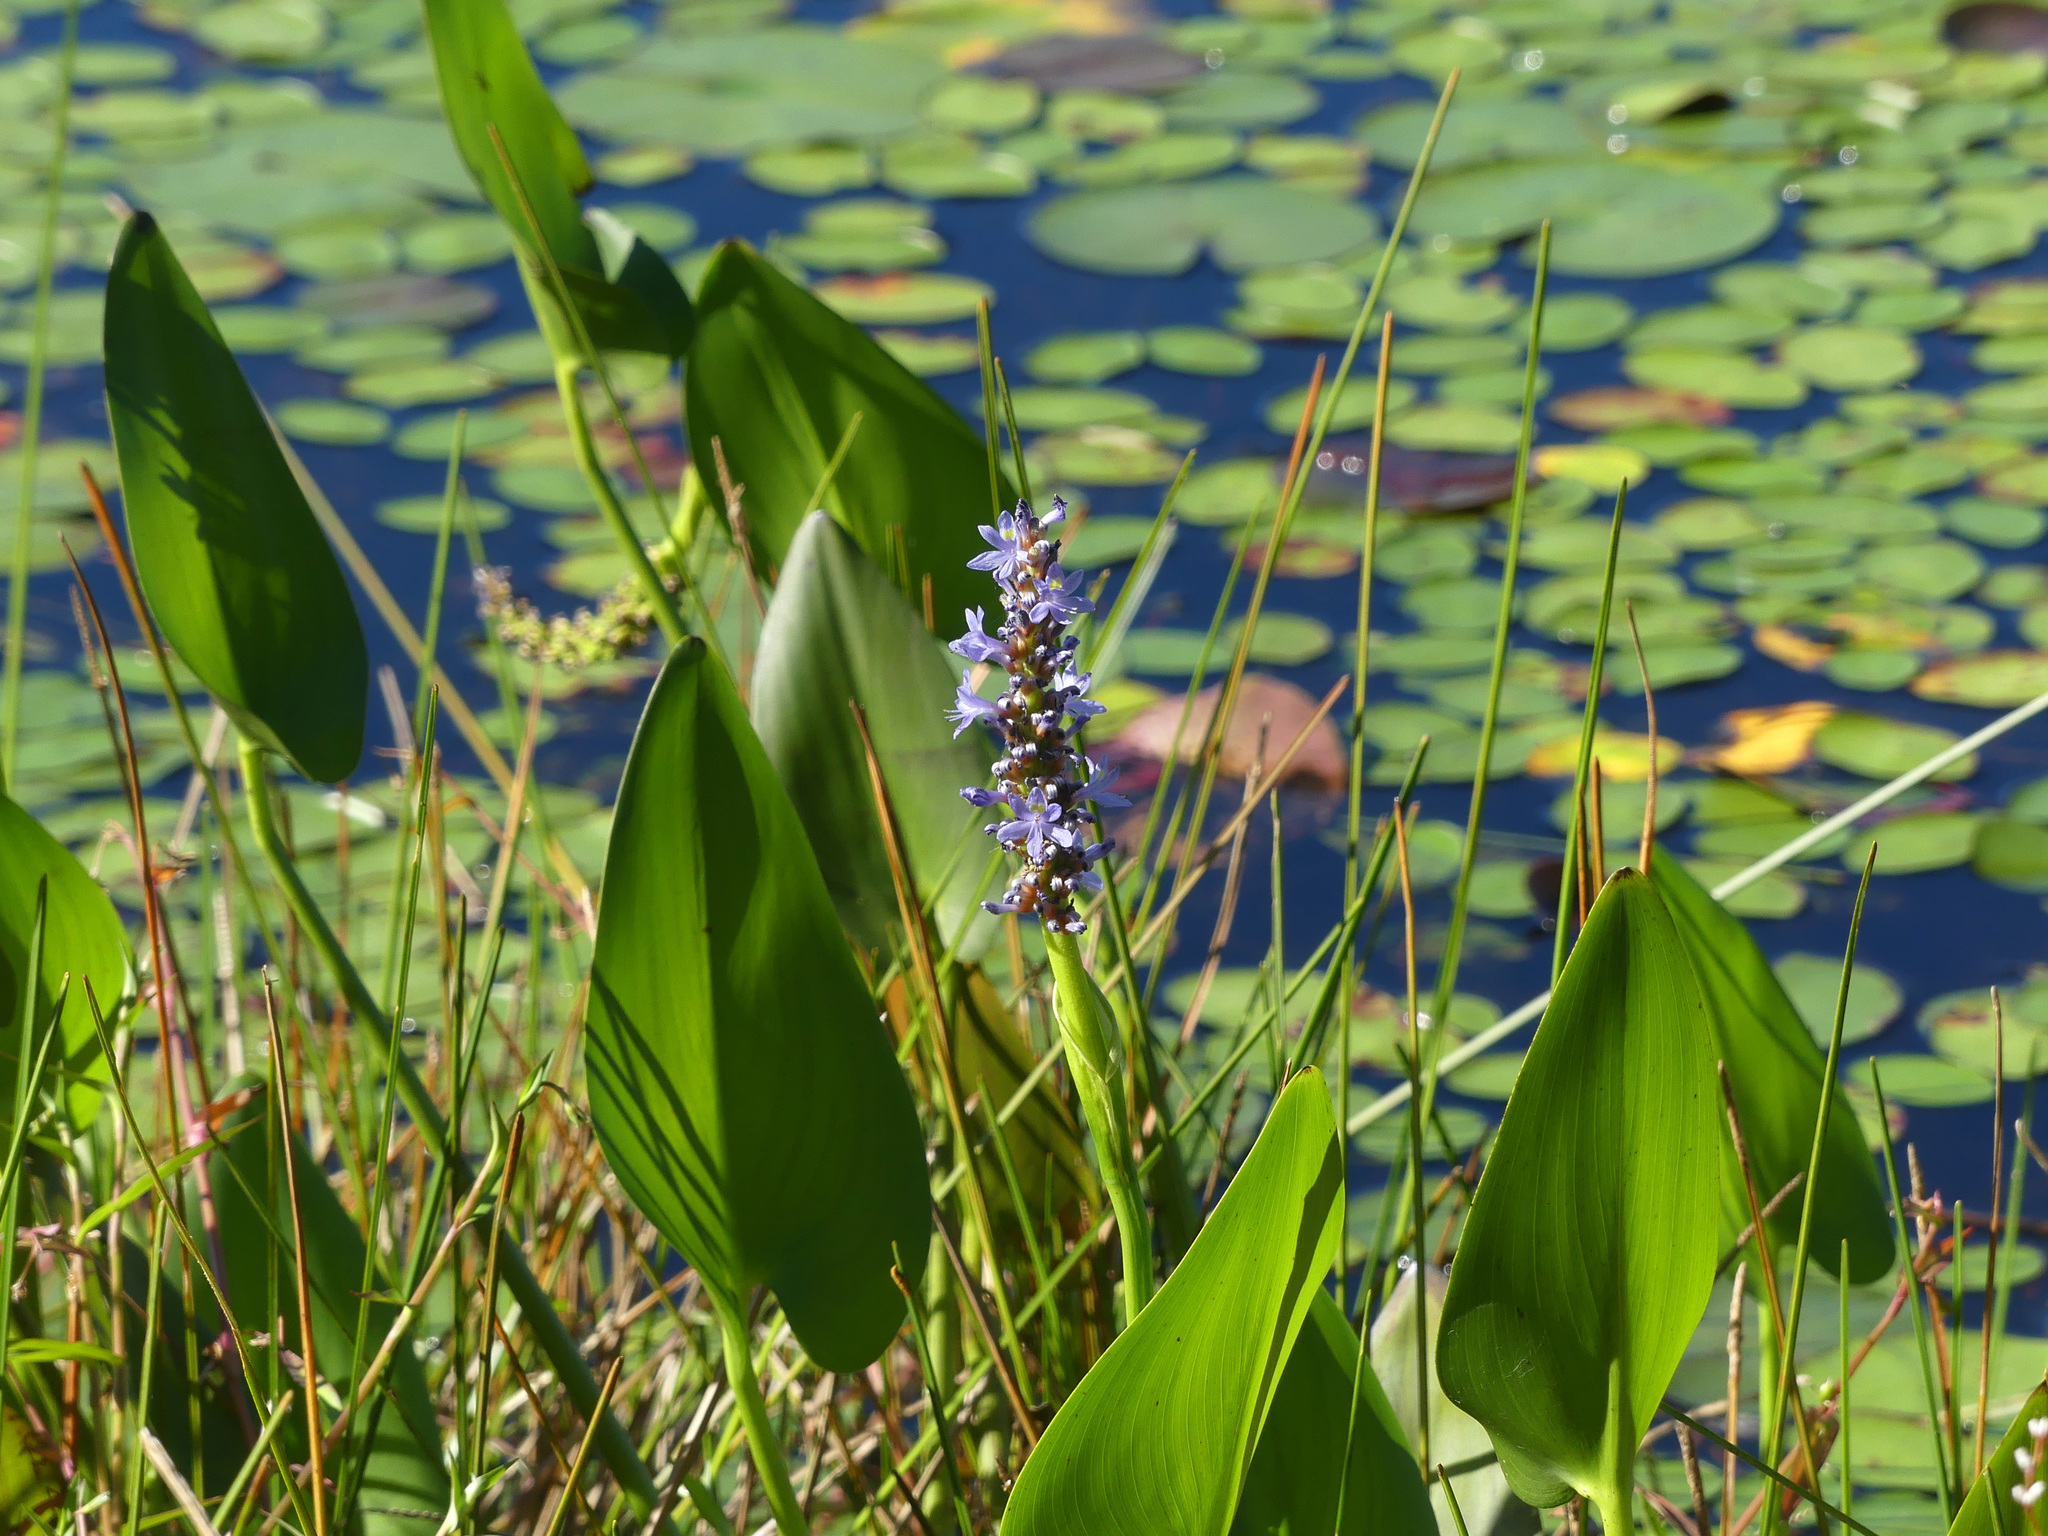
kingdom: Plantae
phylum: Tracheophyta
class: Liliopsida
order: Commelinales
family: Pontederiaceae
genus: Pontederia
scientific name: Pontederia cordata
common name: Pickerelweed
